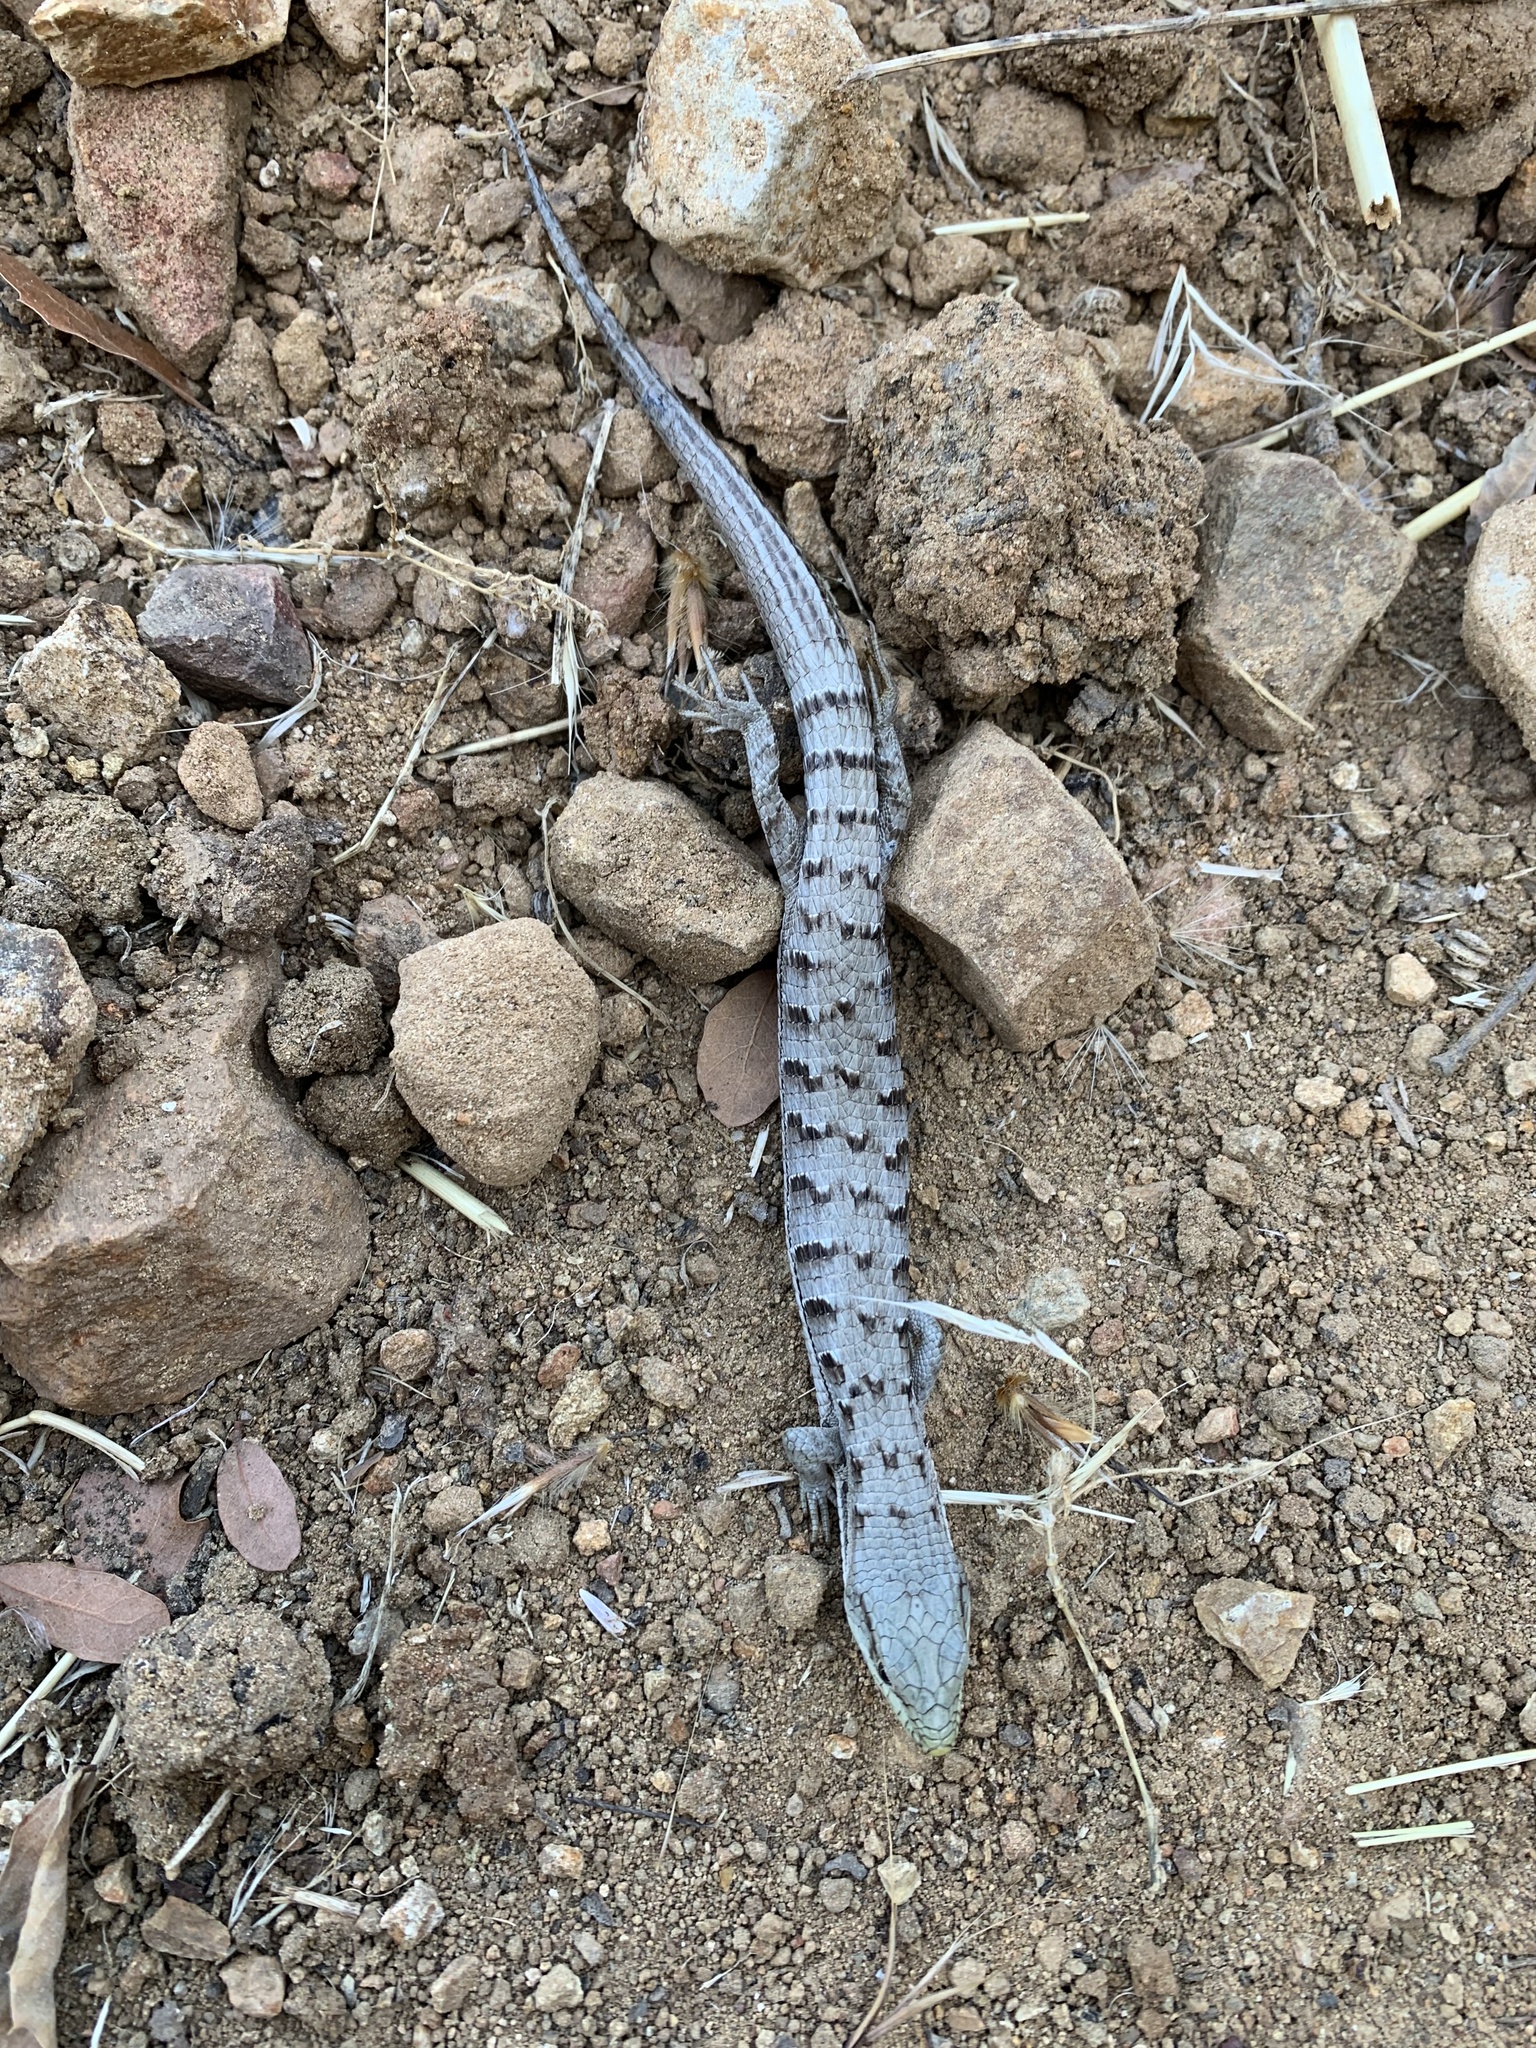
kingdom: Animalia
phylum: Chordata
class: Squamata
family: Anguidae
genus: Elgaria
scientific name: Elgaria multicarinata
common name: Southern alligator lizard
